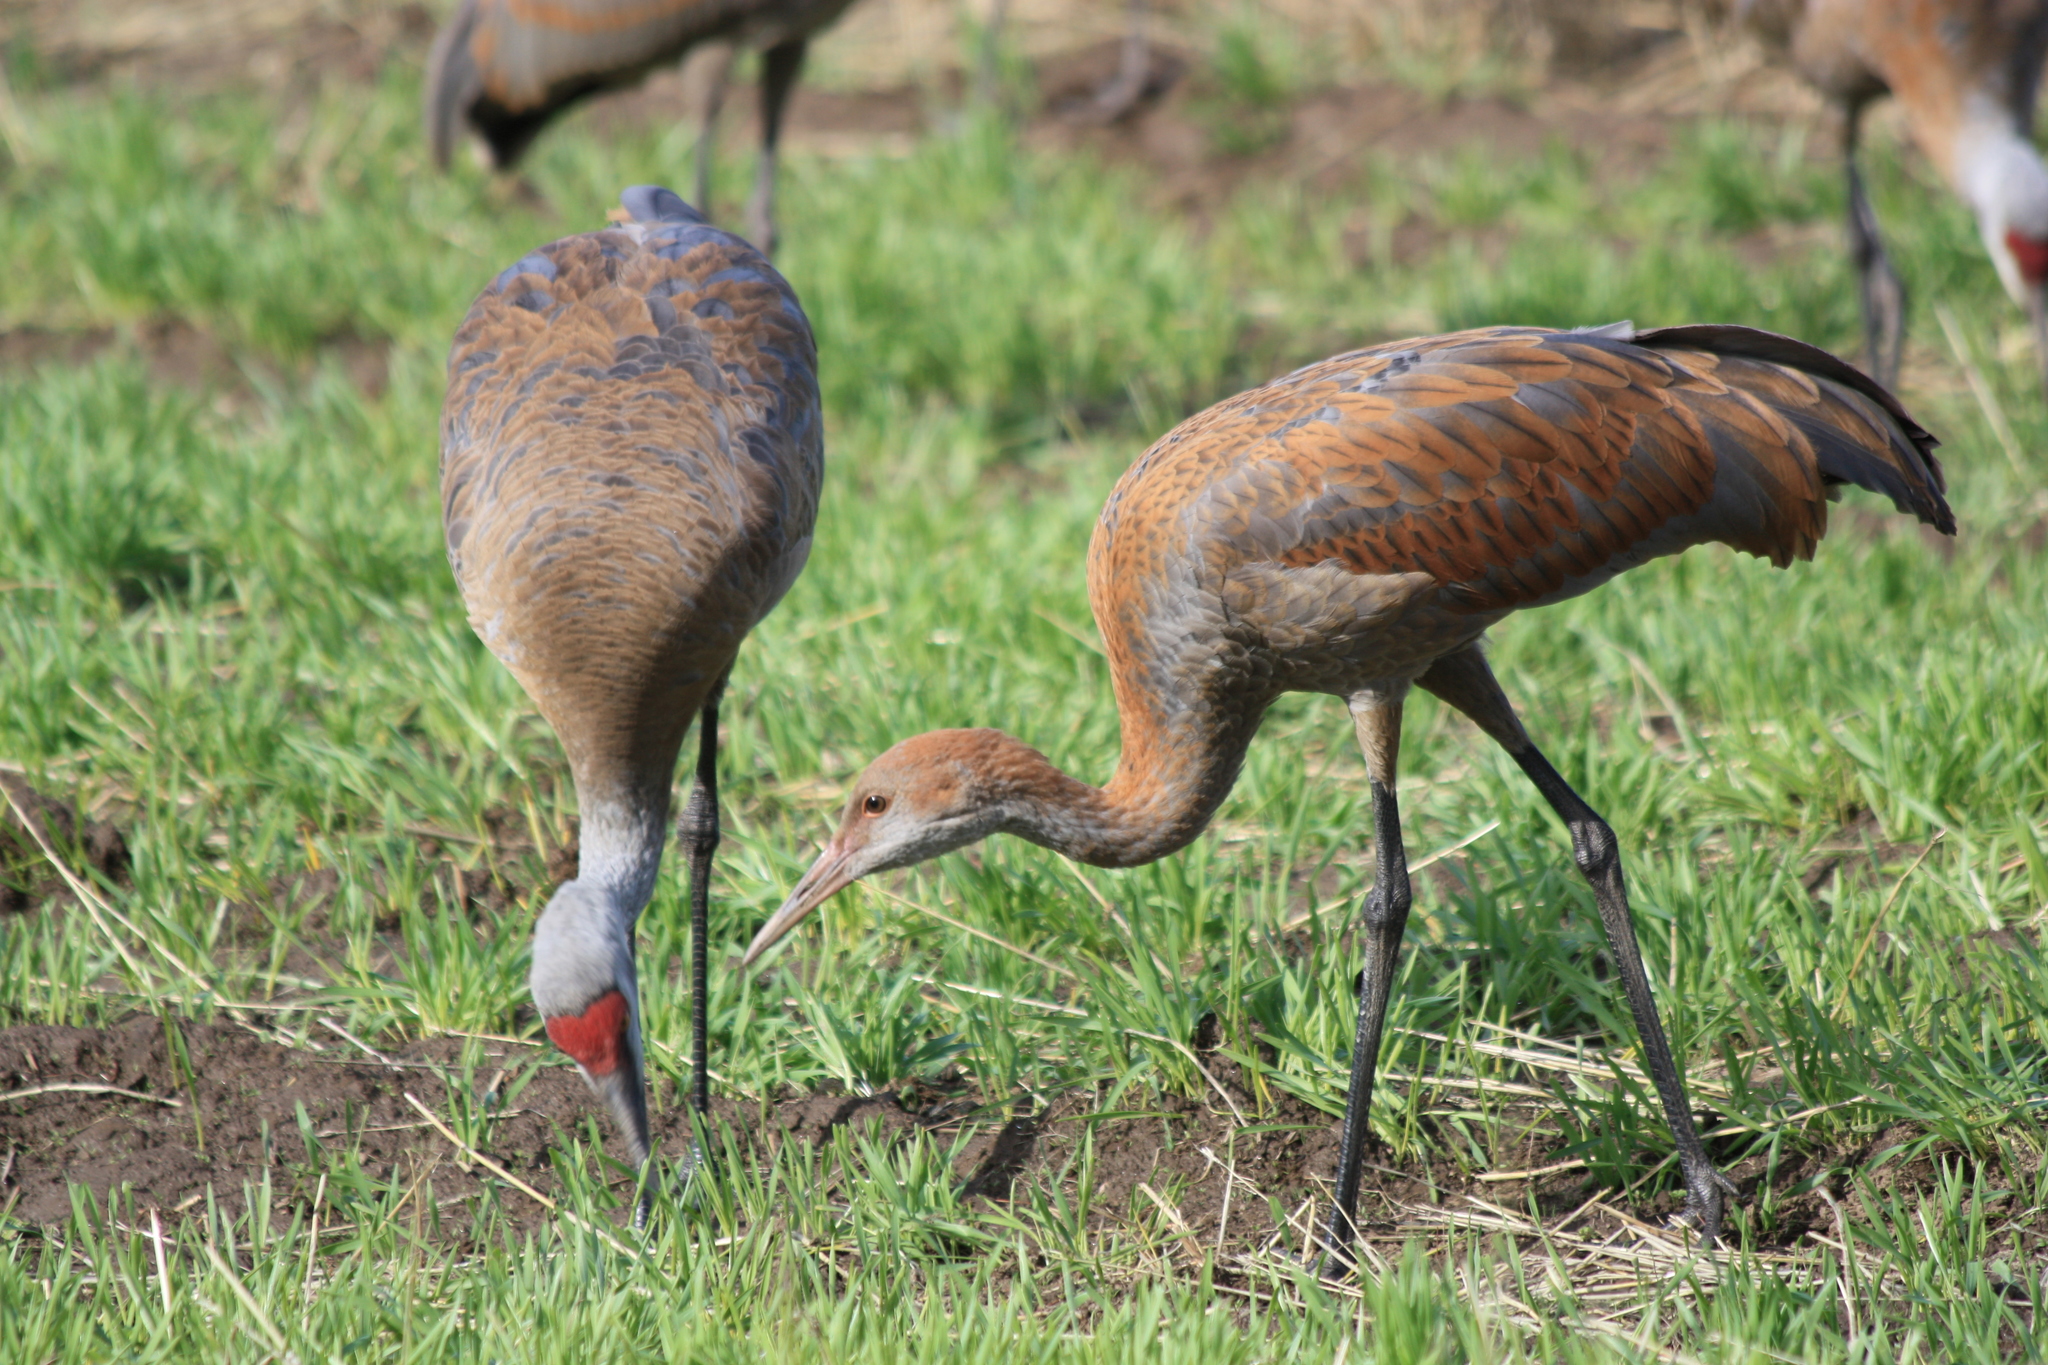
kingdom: Animalia
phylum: Chordata
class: Aves
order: Gruiformes
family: Gruidae
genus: Grus
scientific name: Grus canadensis
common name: Sandhill crane
